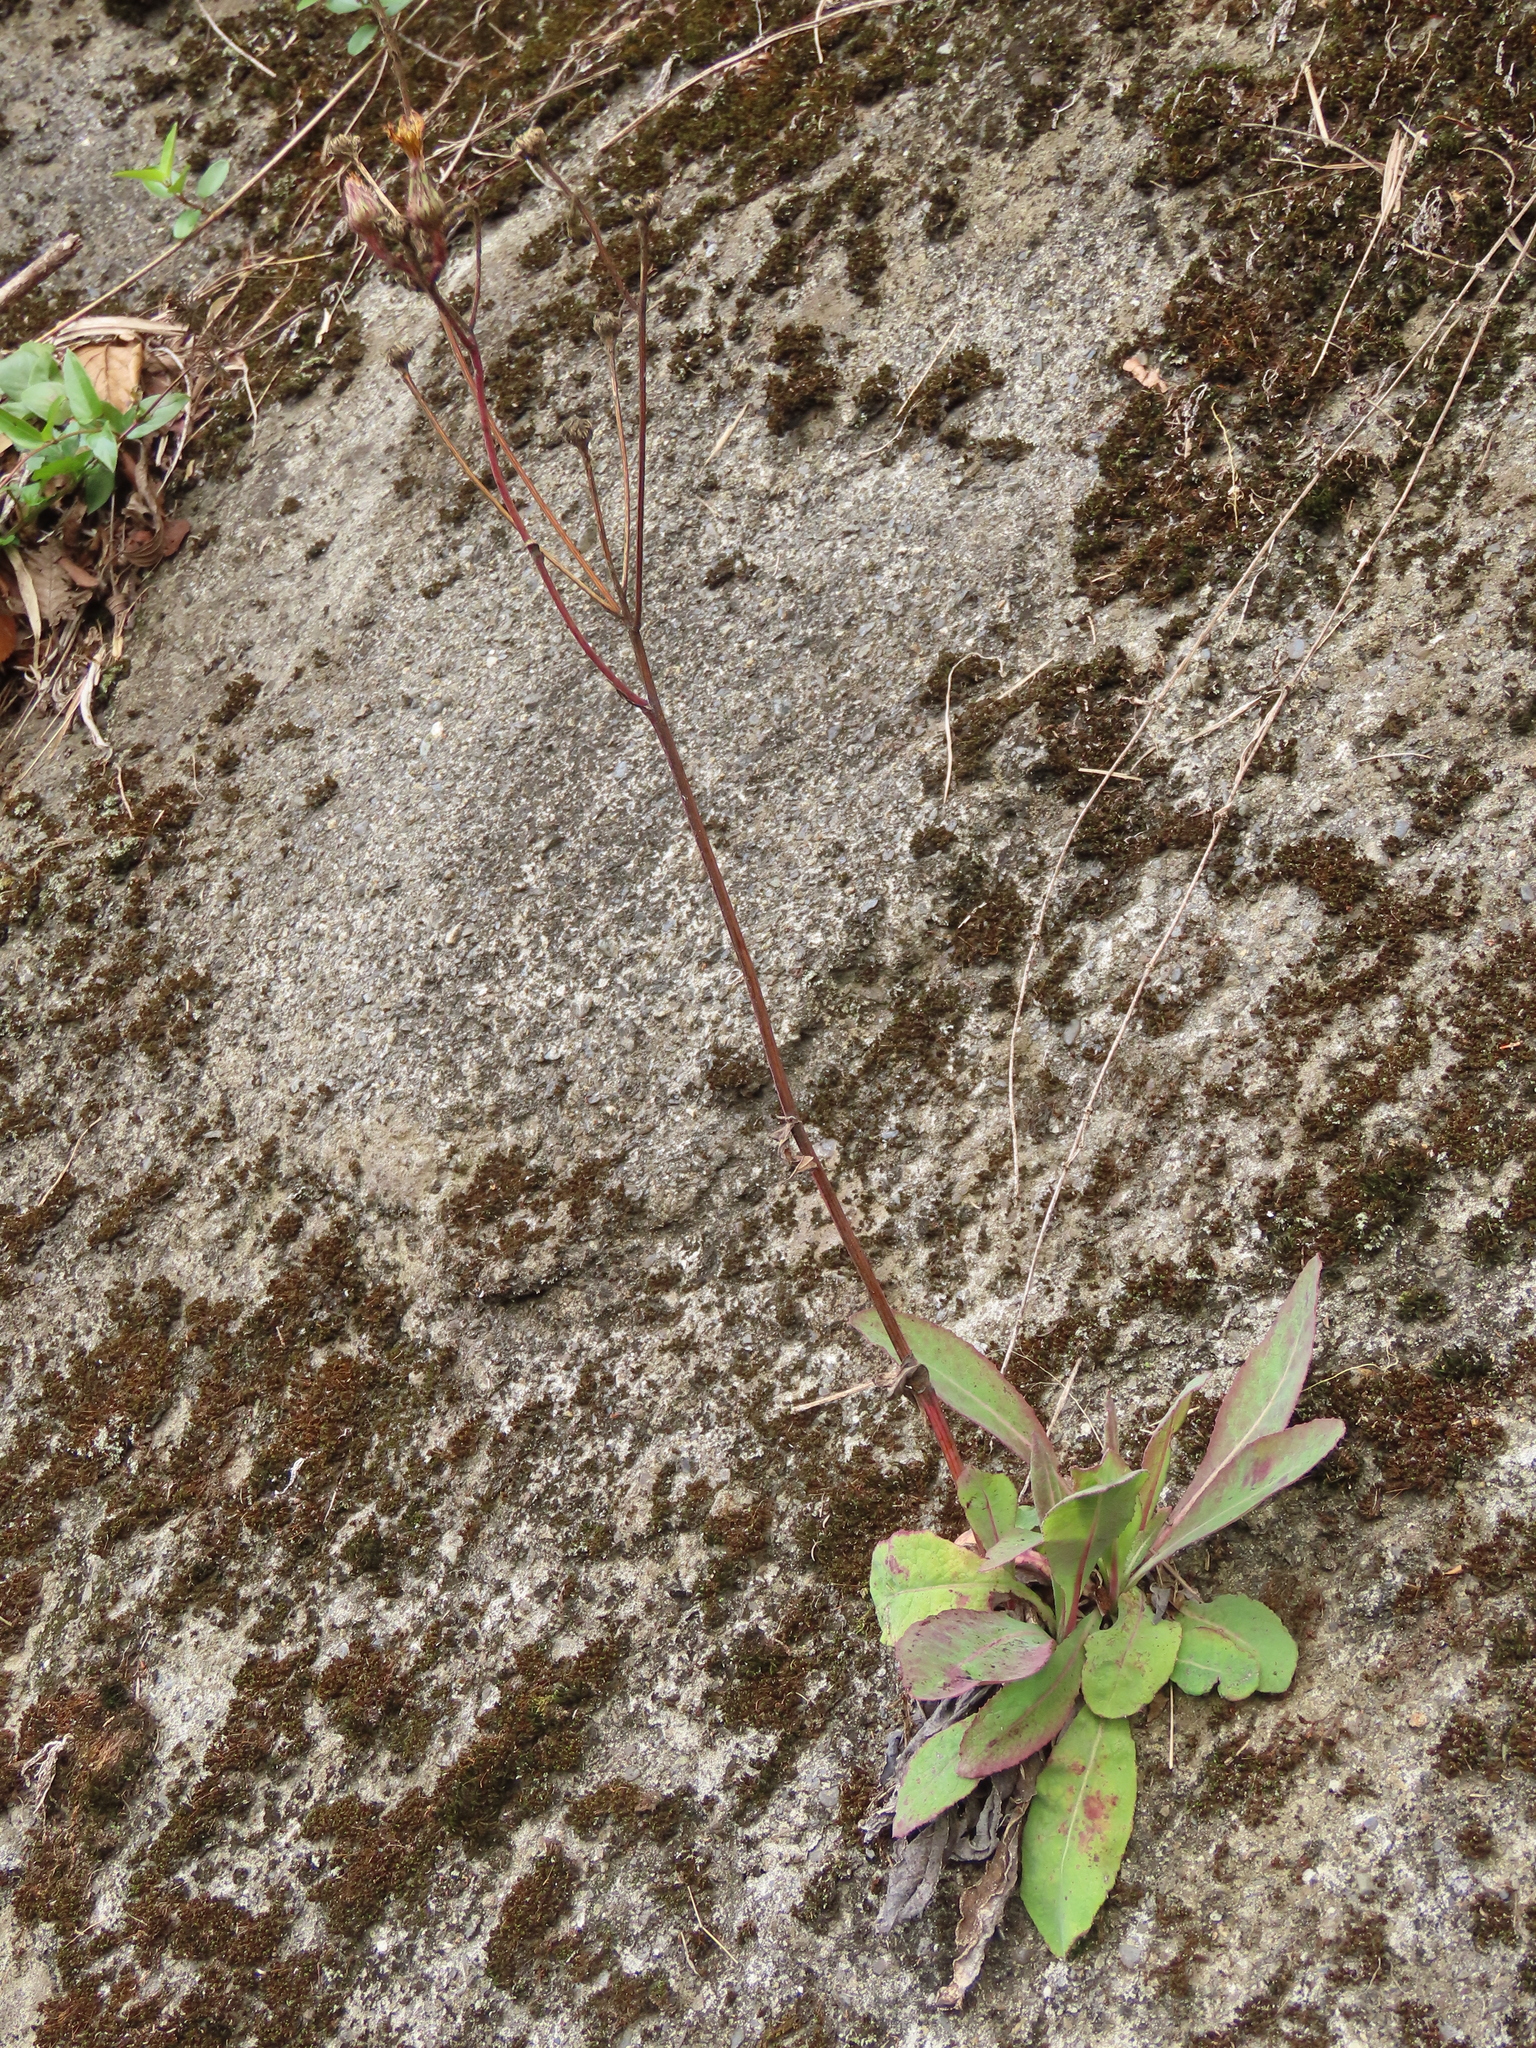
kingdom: Plantae
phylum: Tracheophyta
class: Magnoliopsida
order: Asterales
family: Asteraceae
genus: Sonchus
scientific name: Sonchus arvensis
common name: Perennial sow-thistle
